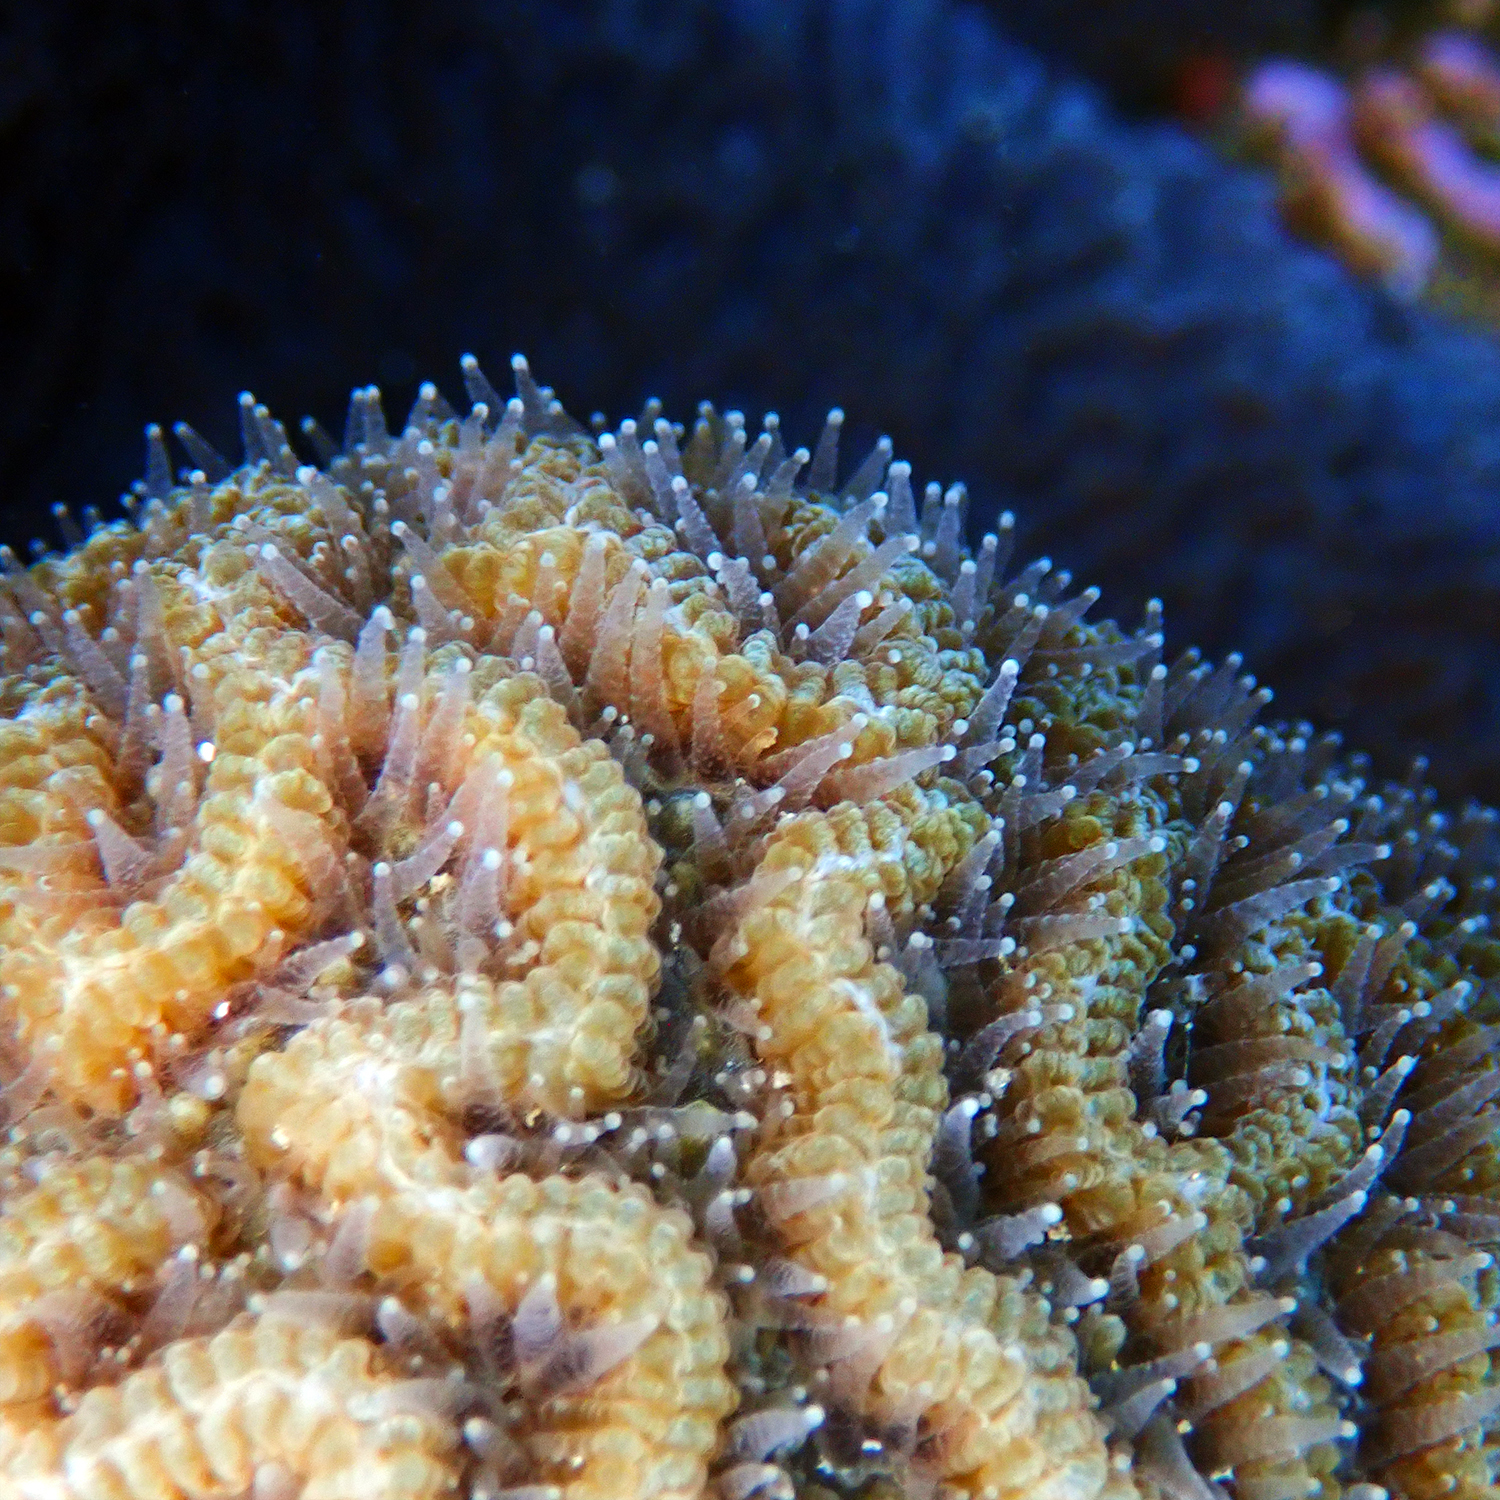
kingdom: Animalia
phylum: Cnidaria
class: Anthozoa
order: Scleractinia
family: Merulinidae
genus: Paragoniastrea
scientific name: Paragoniastrea australensis
